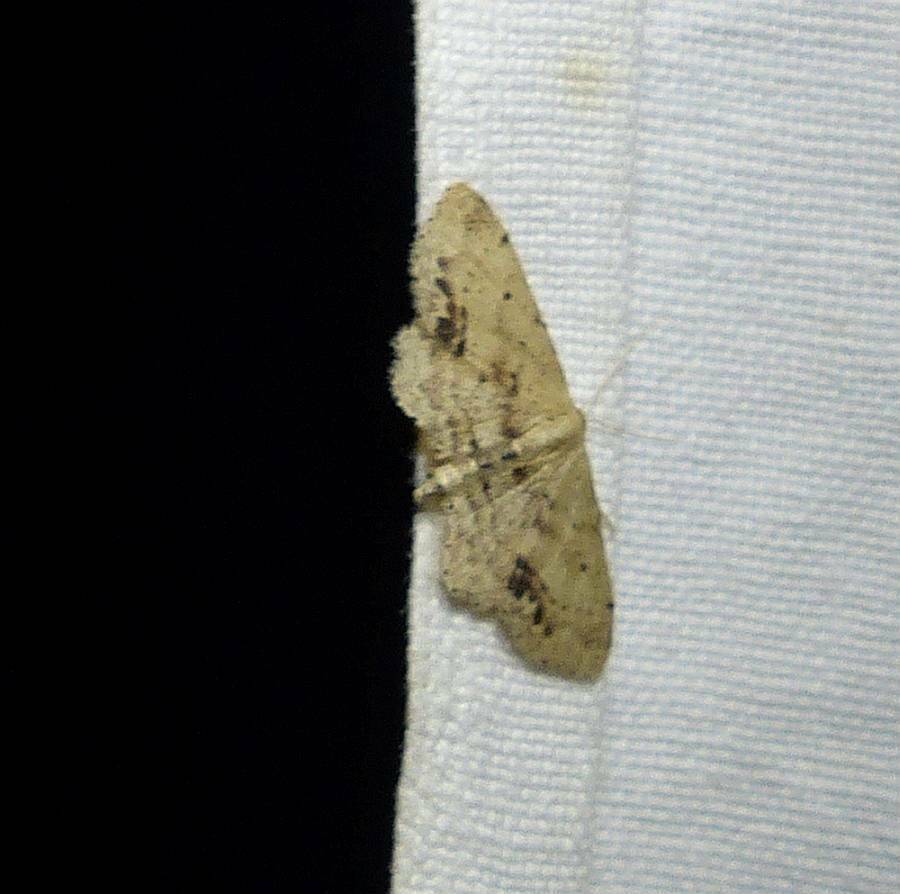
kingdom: Animalia
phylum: Arthropoda
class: Insecta
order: Lepidoptera
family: Geometridae
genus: Idaea
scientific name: Idaea dimidiata
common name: Single-dotted wave
